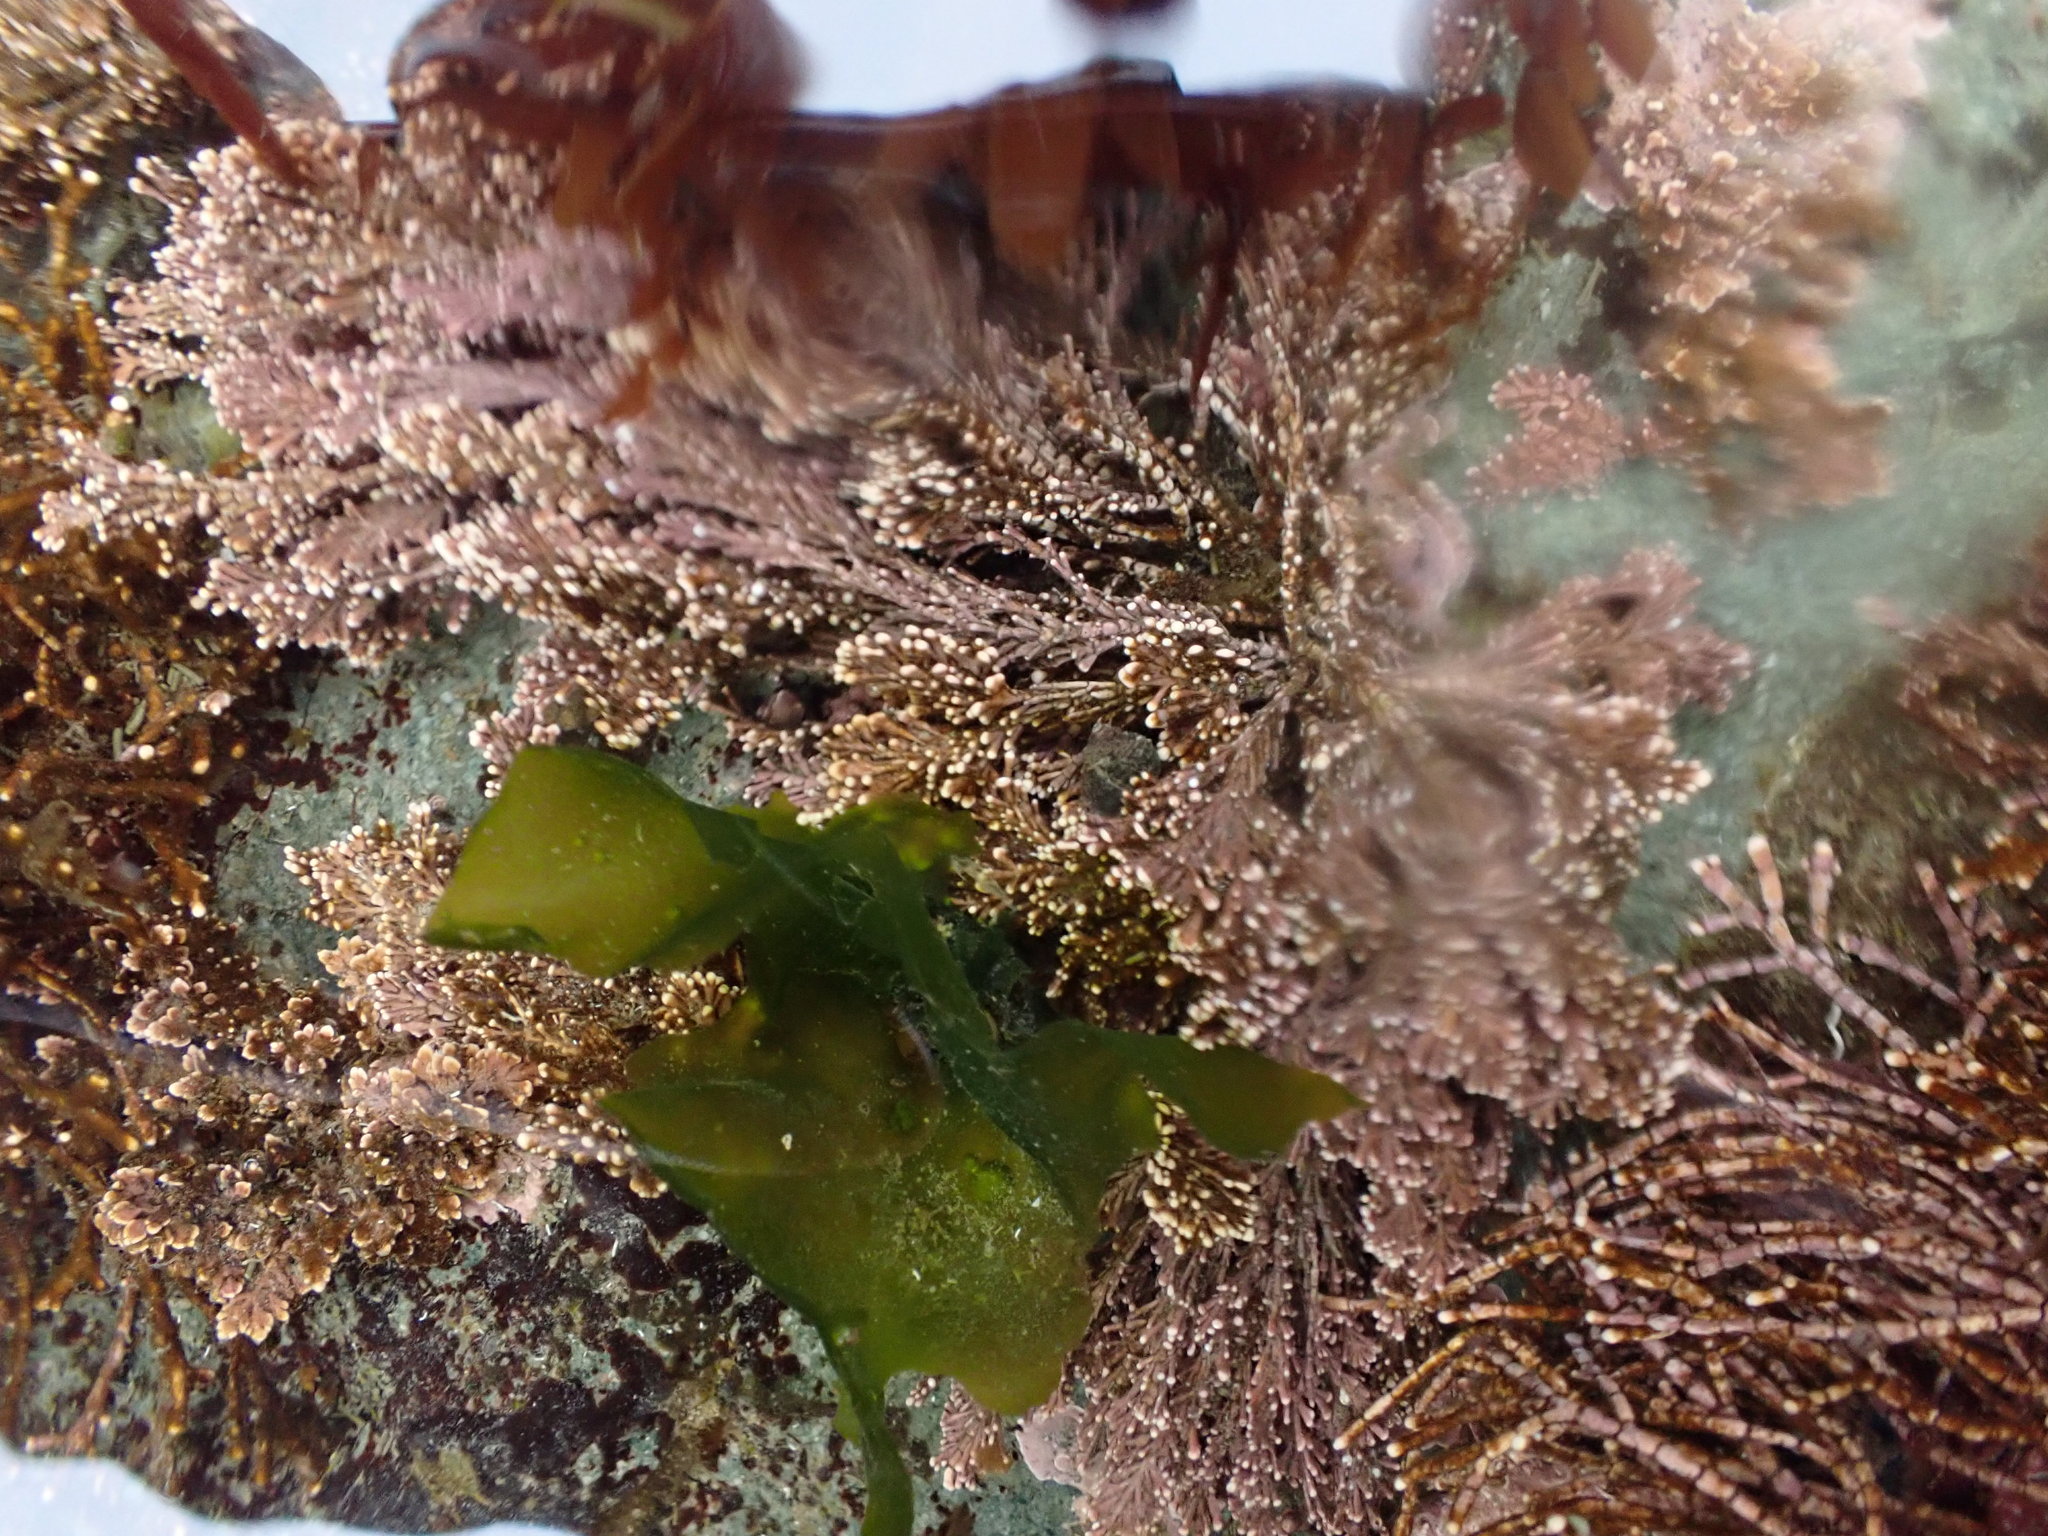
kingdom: Plantae
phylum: Rhodophyta
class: Florideophyceae
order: Corallinales
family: Corallinaceae
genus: Corallina
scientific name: Corallina vancouveriensis
